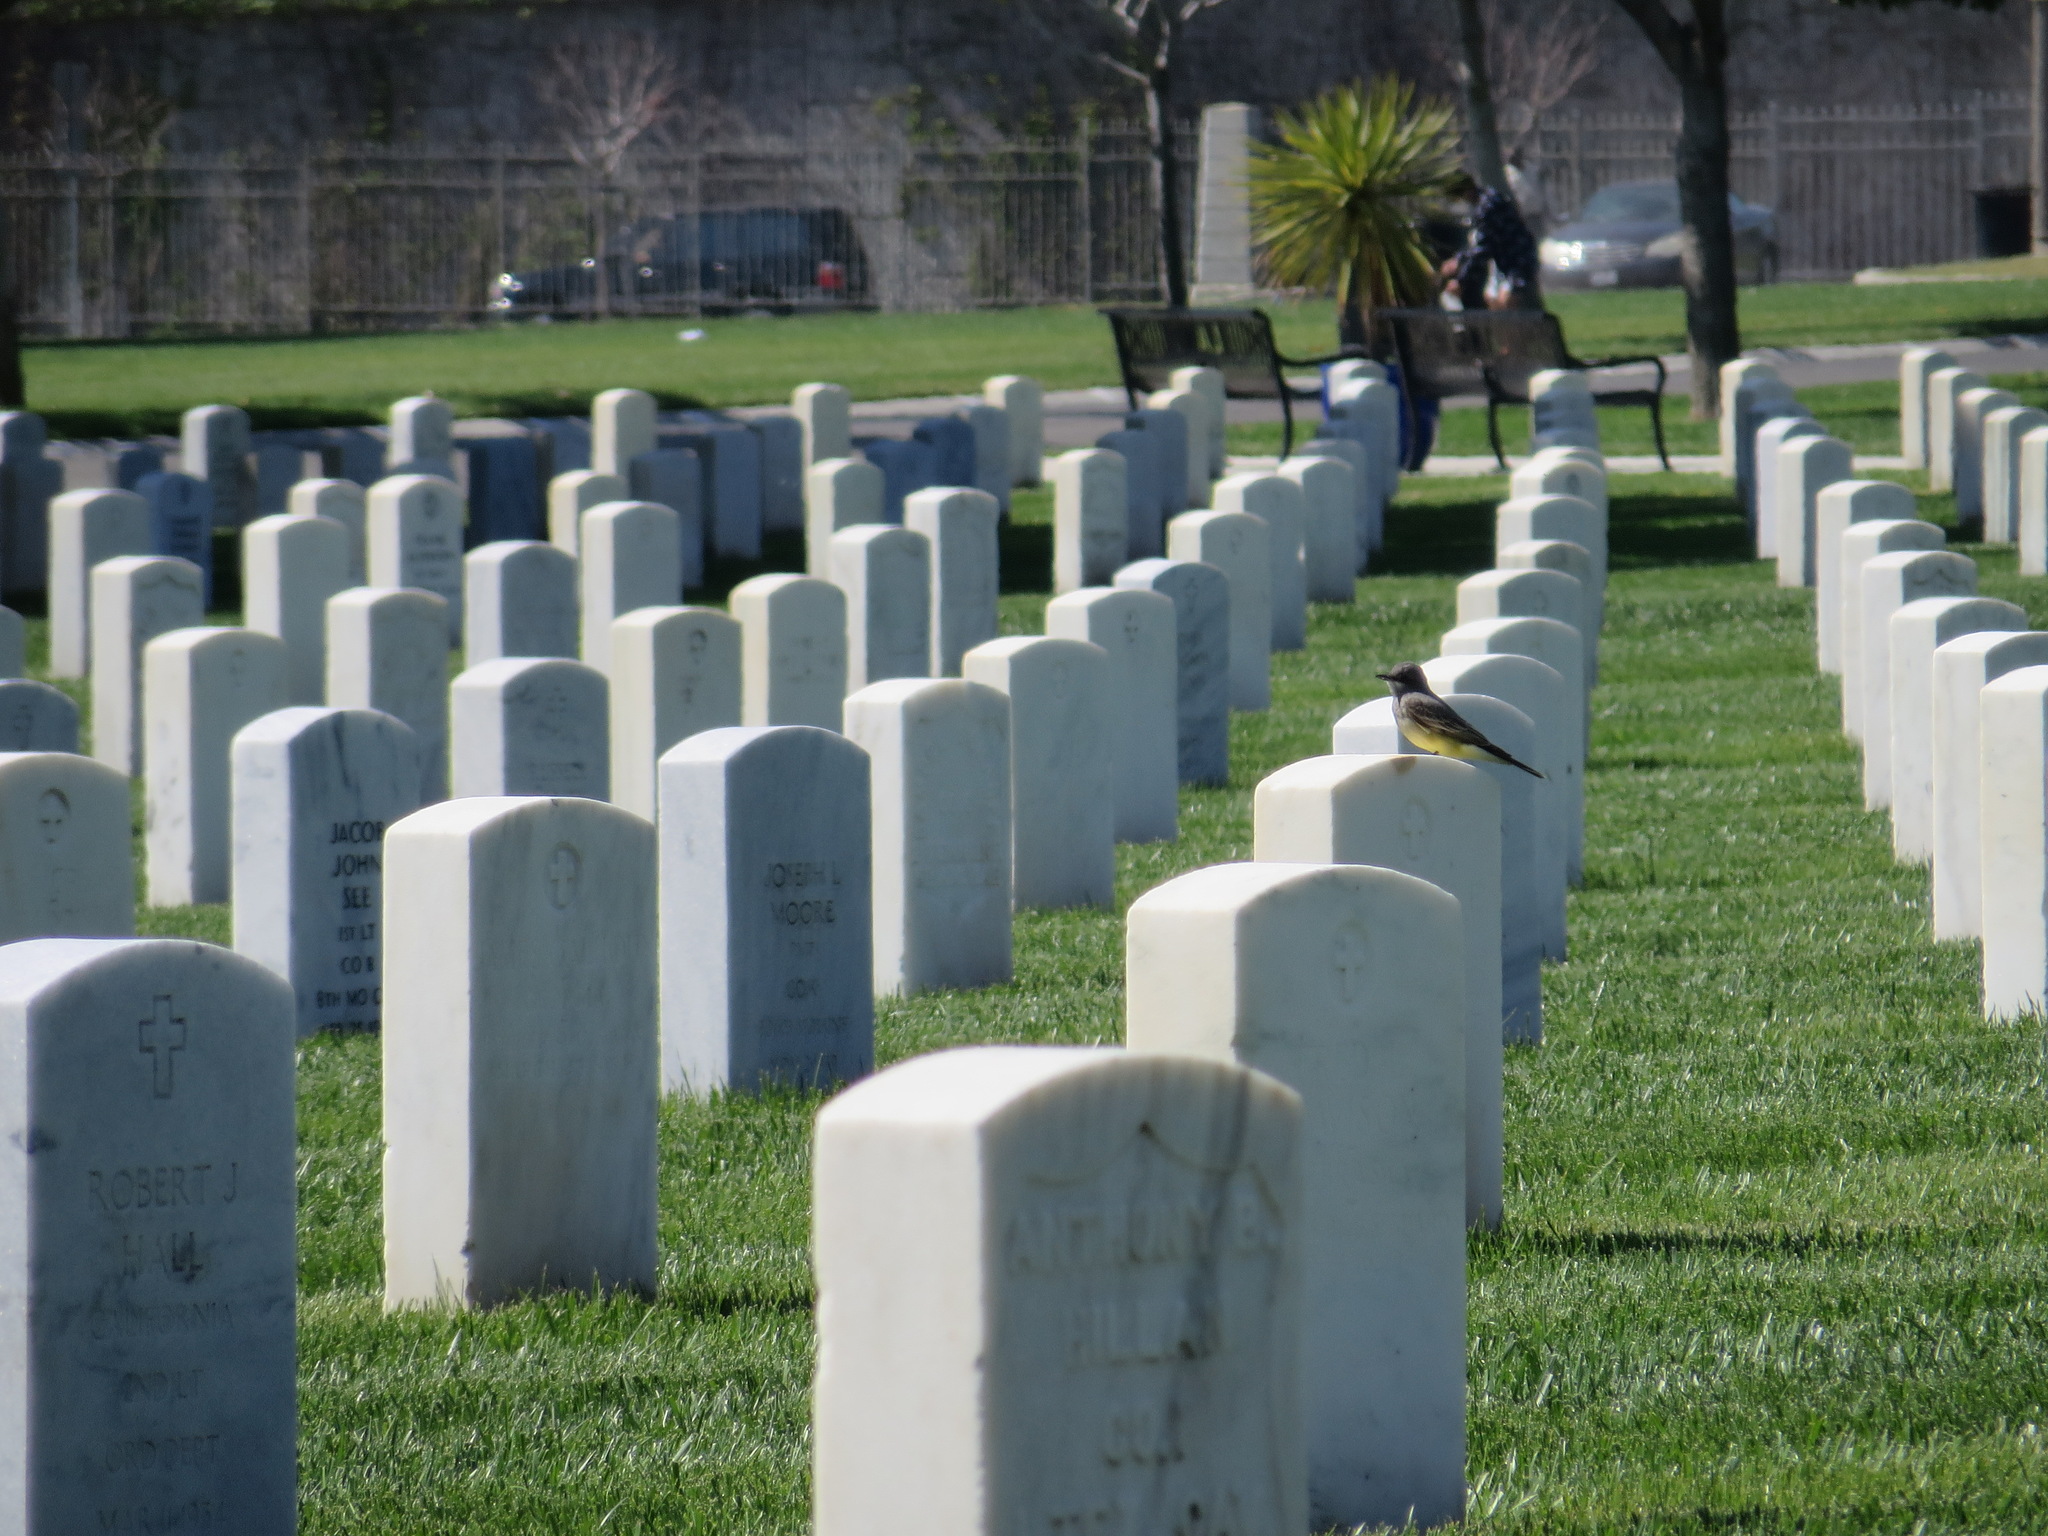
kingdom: Animalia
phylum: Chordata
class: Aves
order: Passeriformes
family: Tyrannidae
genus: Tyrannus
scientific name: Tyrannus verticalis
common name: Western kingbird
